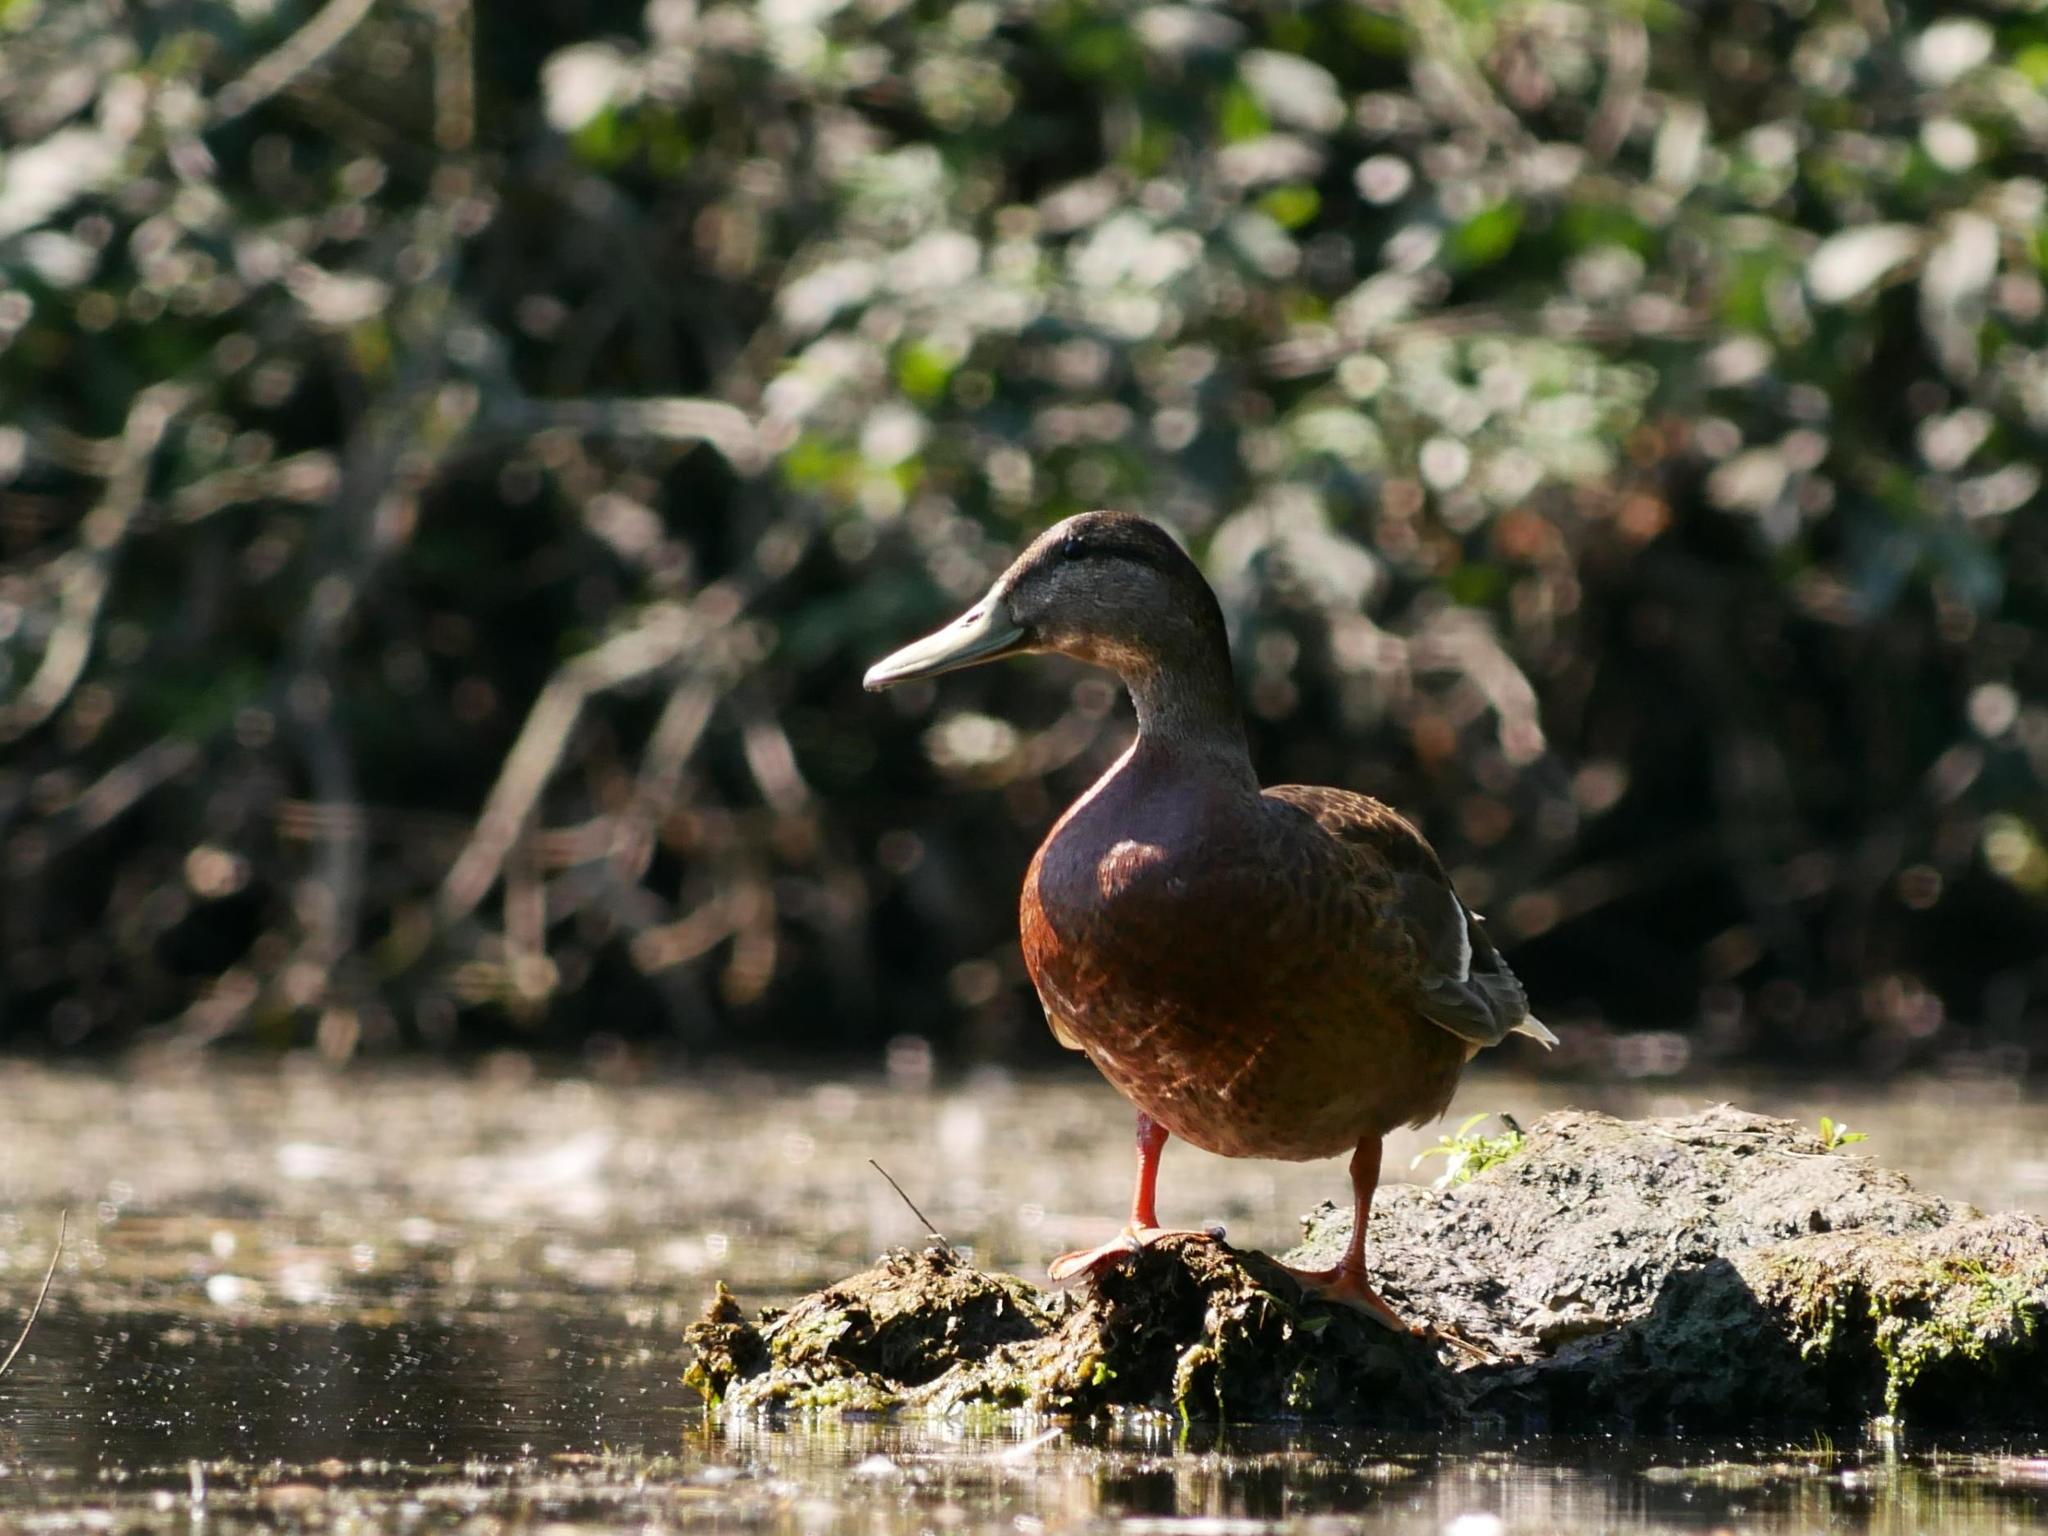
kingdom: Animalia
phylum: Chordata
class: Aves
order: Anseriformes
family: Anatidae
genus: Anas
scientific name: Anas platyrhynchos
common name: Mallard
